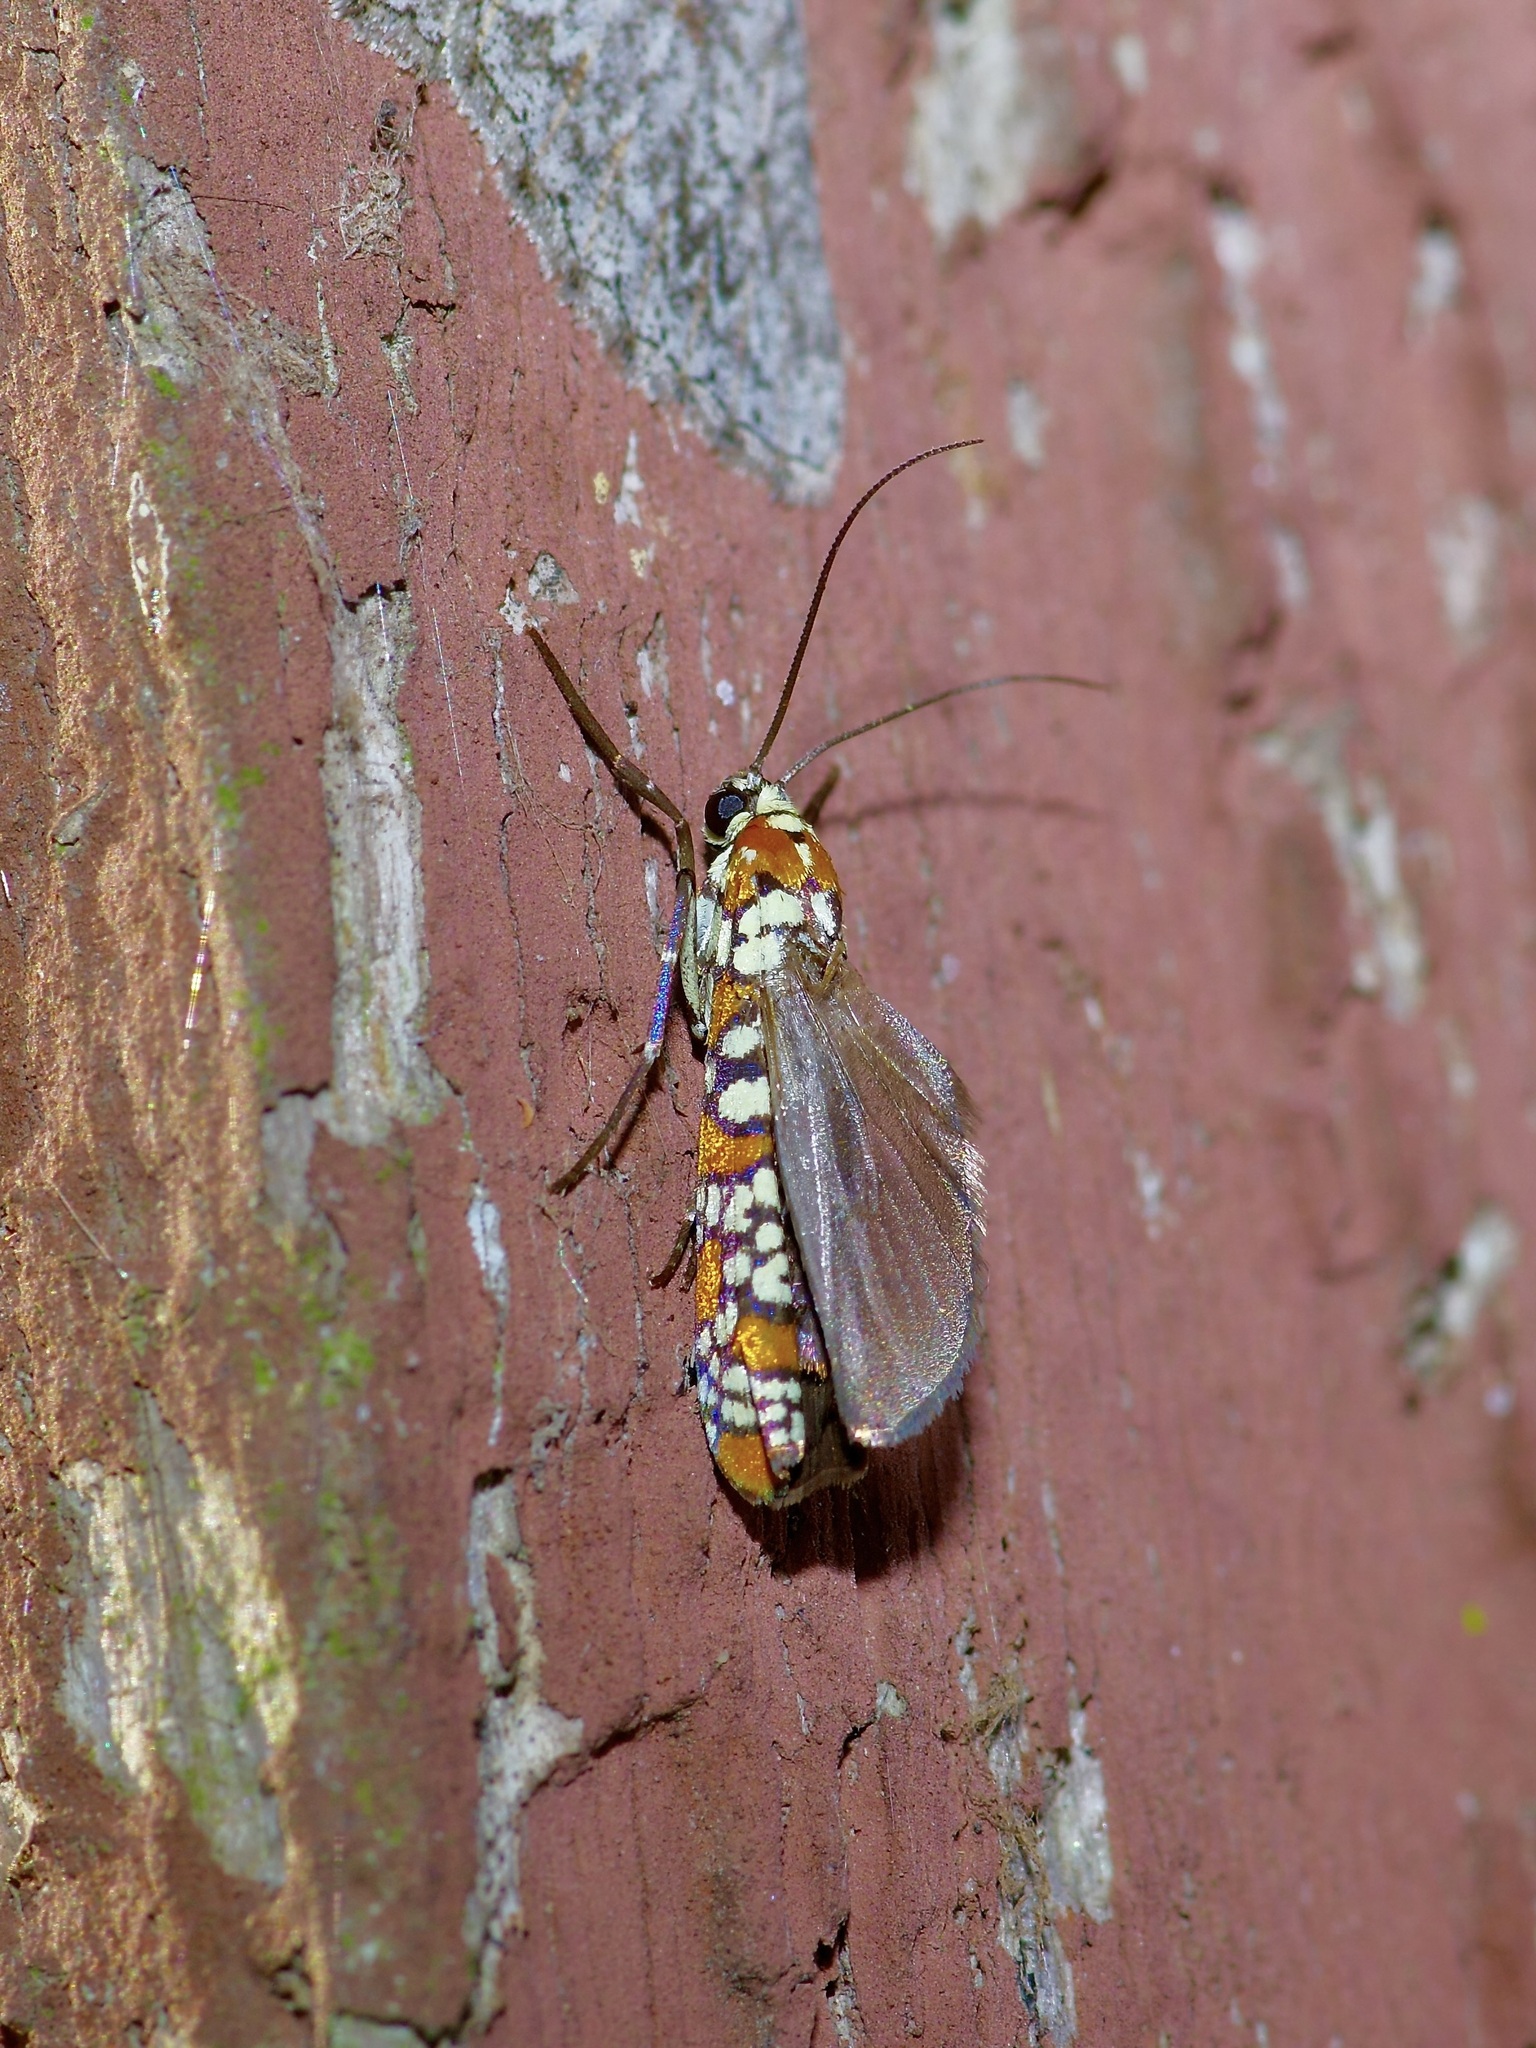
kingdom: Animalia
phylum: Arthropoda
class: Insecta
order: Lepidoptera
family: Attevidae
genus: Atteva
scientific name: Atteva punctella
